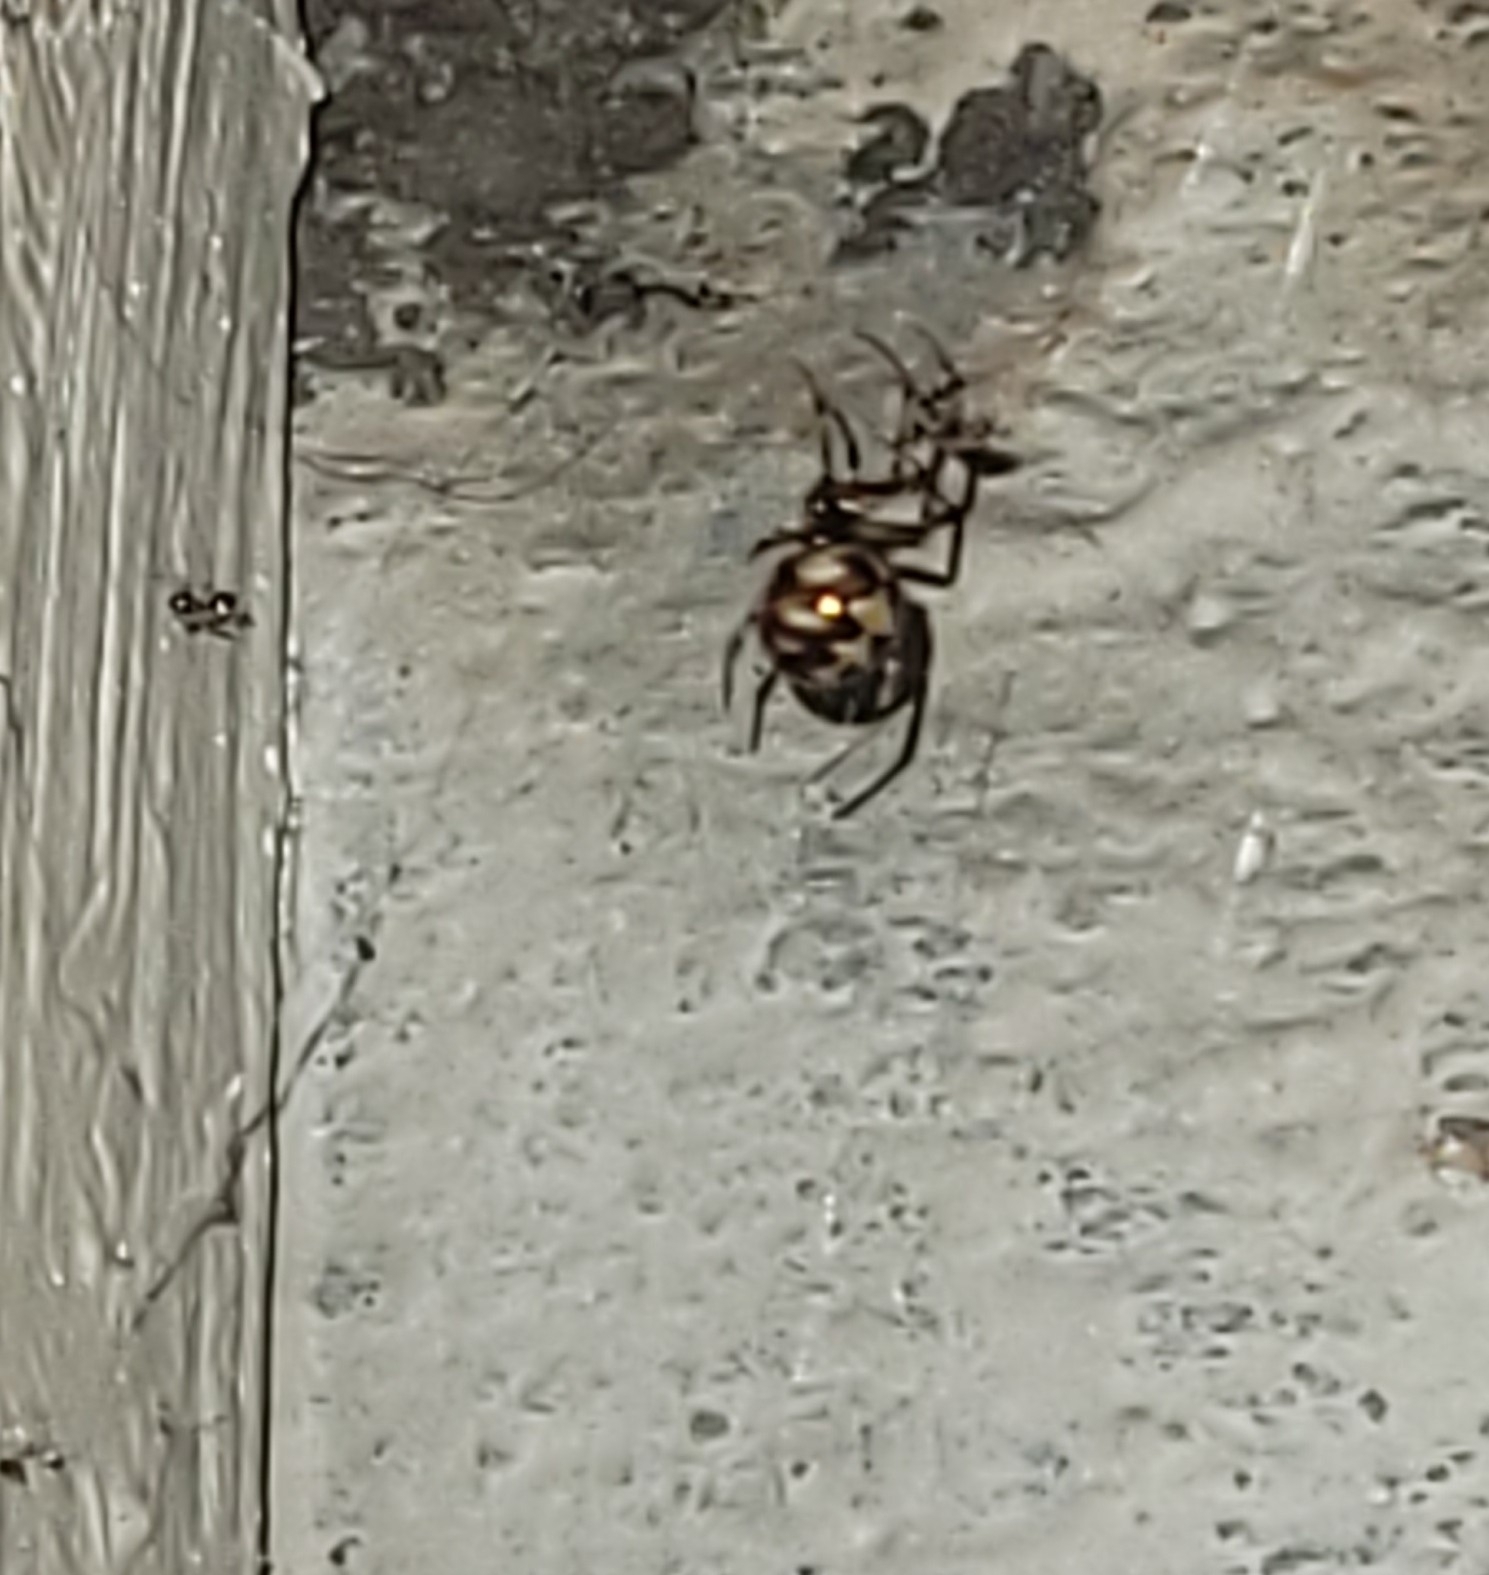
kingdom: Animalia
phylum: Arthropoda
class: Arachnida
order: Araneae
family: Theridiidae
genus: Steatoda
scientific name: Steatoda triangulosa
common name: Triangulate bud spider
